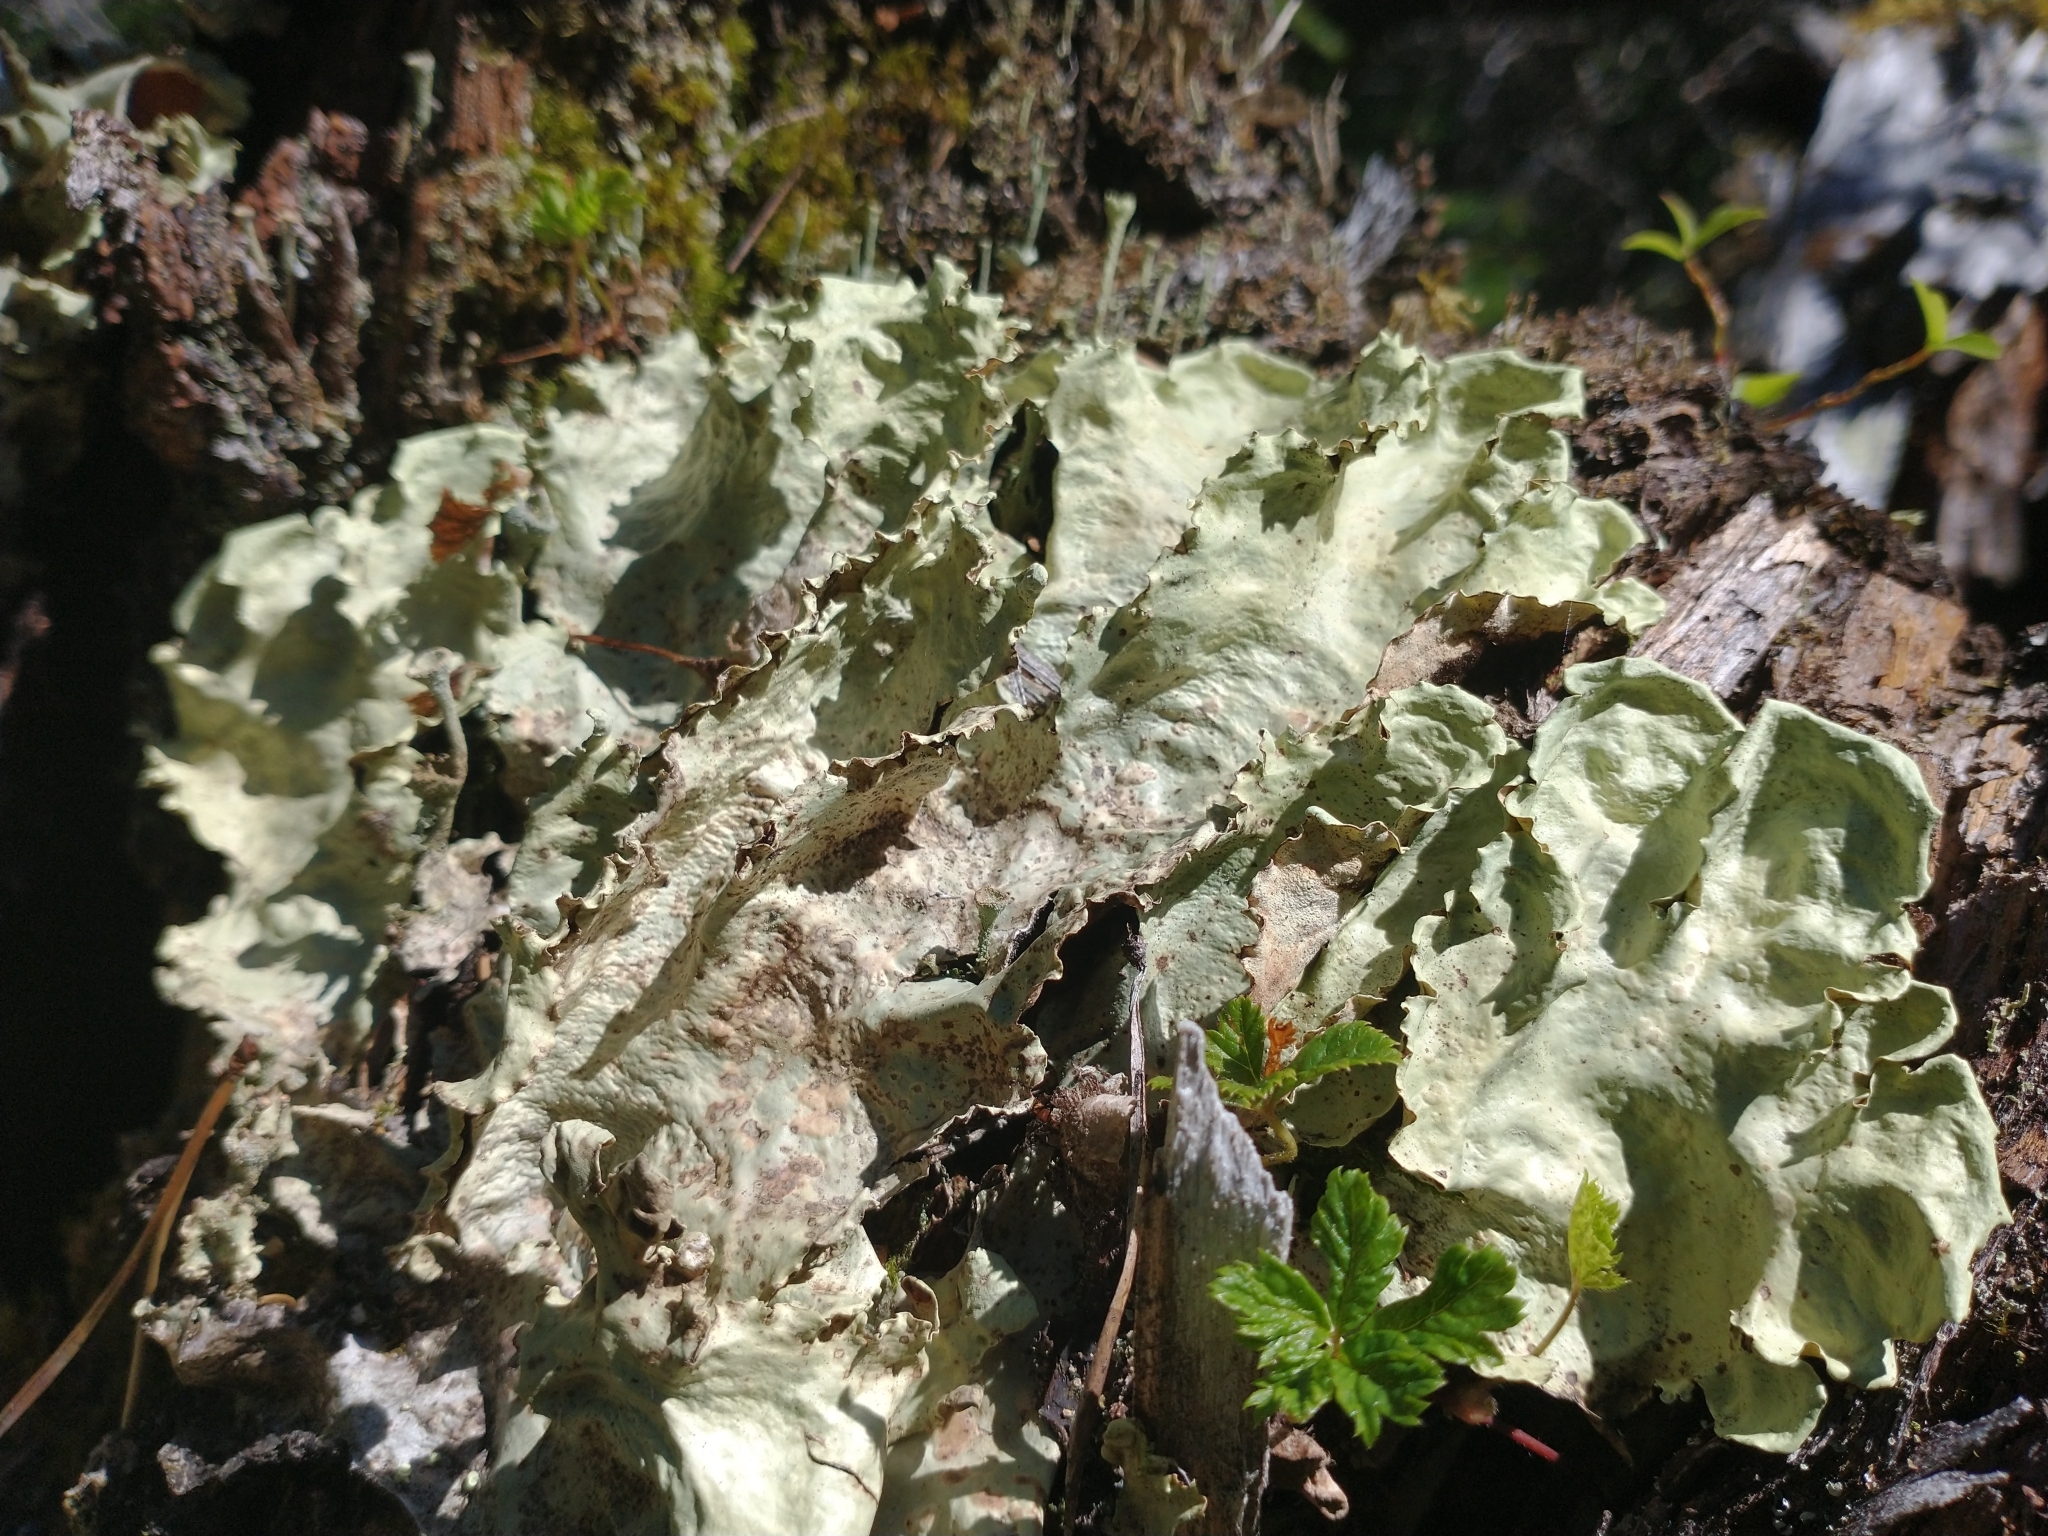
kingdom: Fungi
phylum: Ascomycota
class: Lecanoromycetes
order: Peltigerales
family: Nephromataceae
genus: Nephroma
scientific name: Nephroma arcticum
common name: Arctic kidney-lichen
